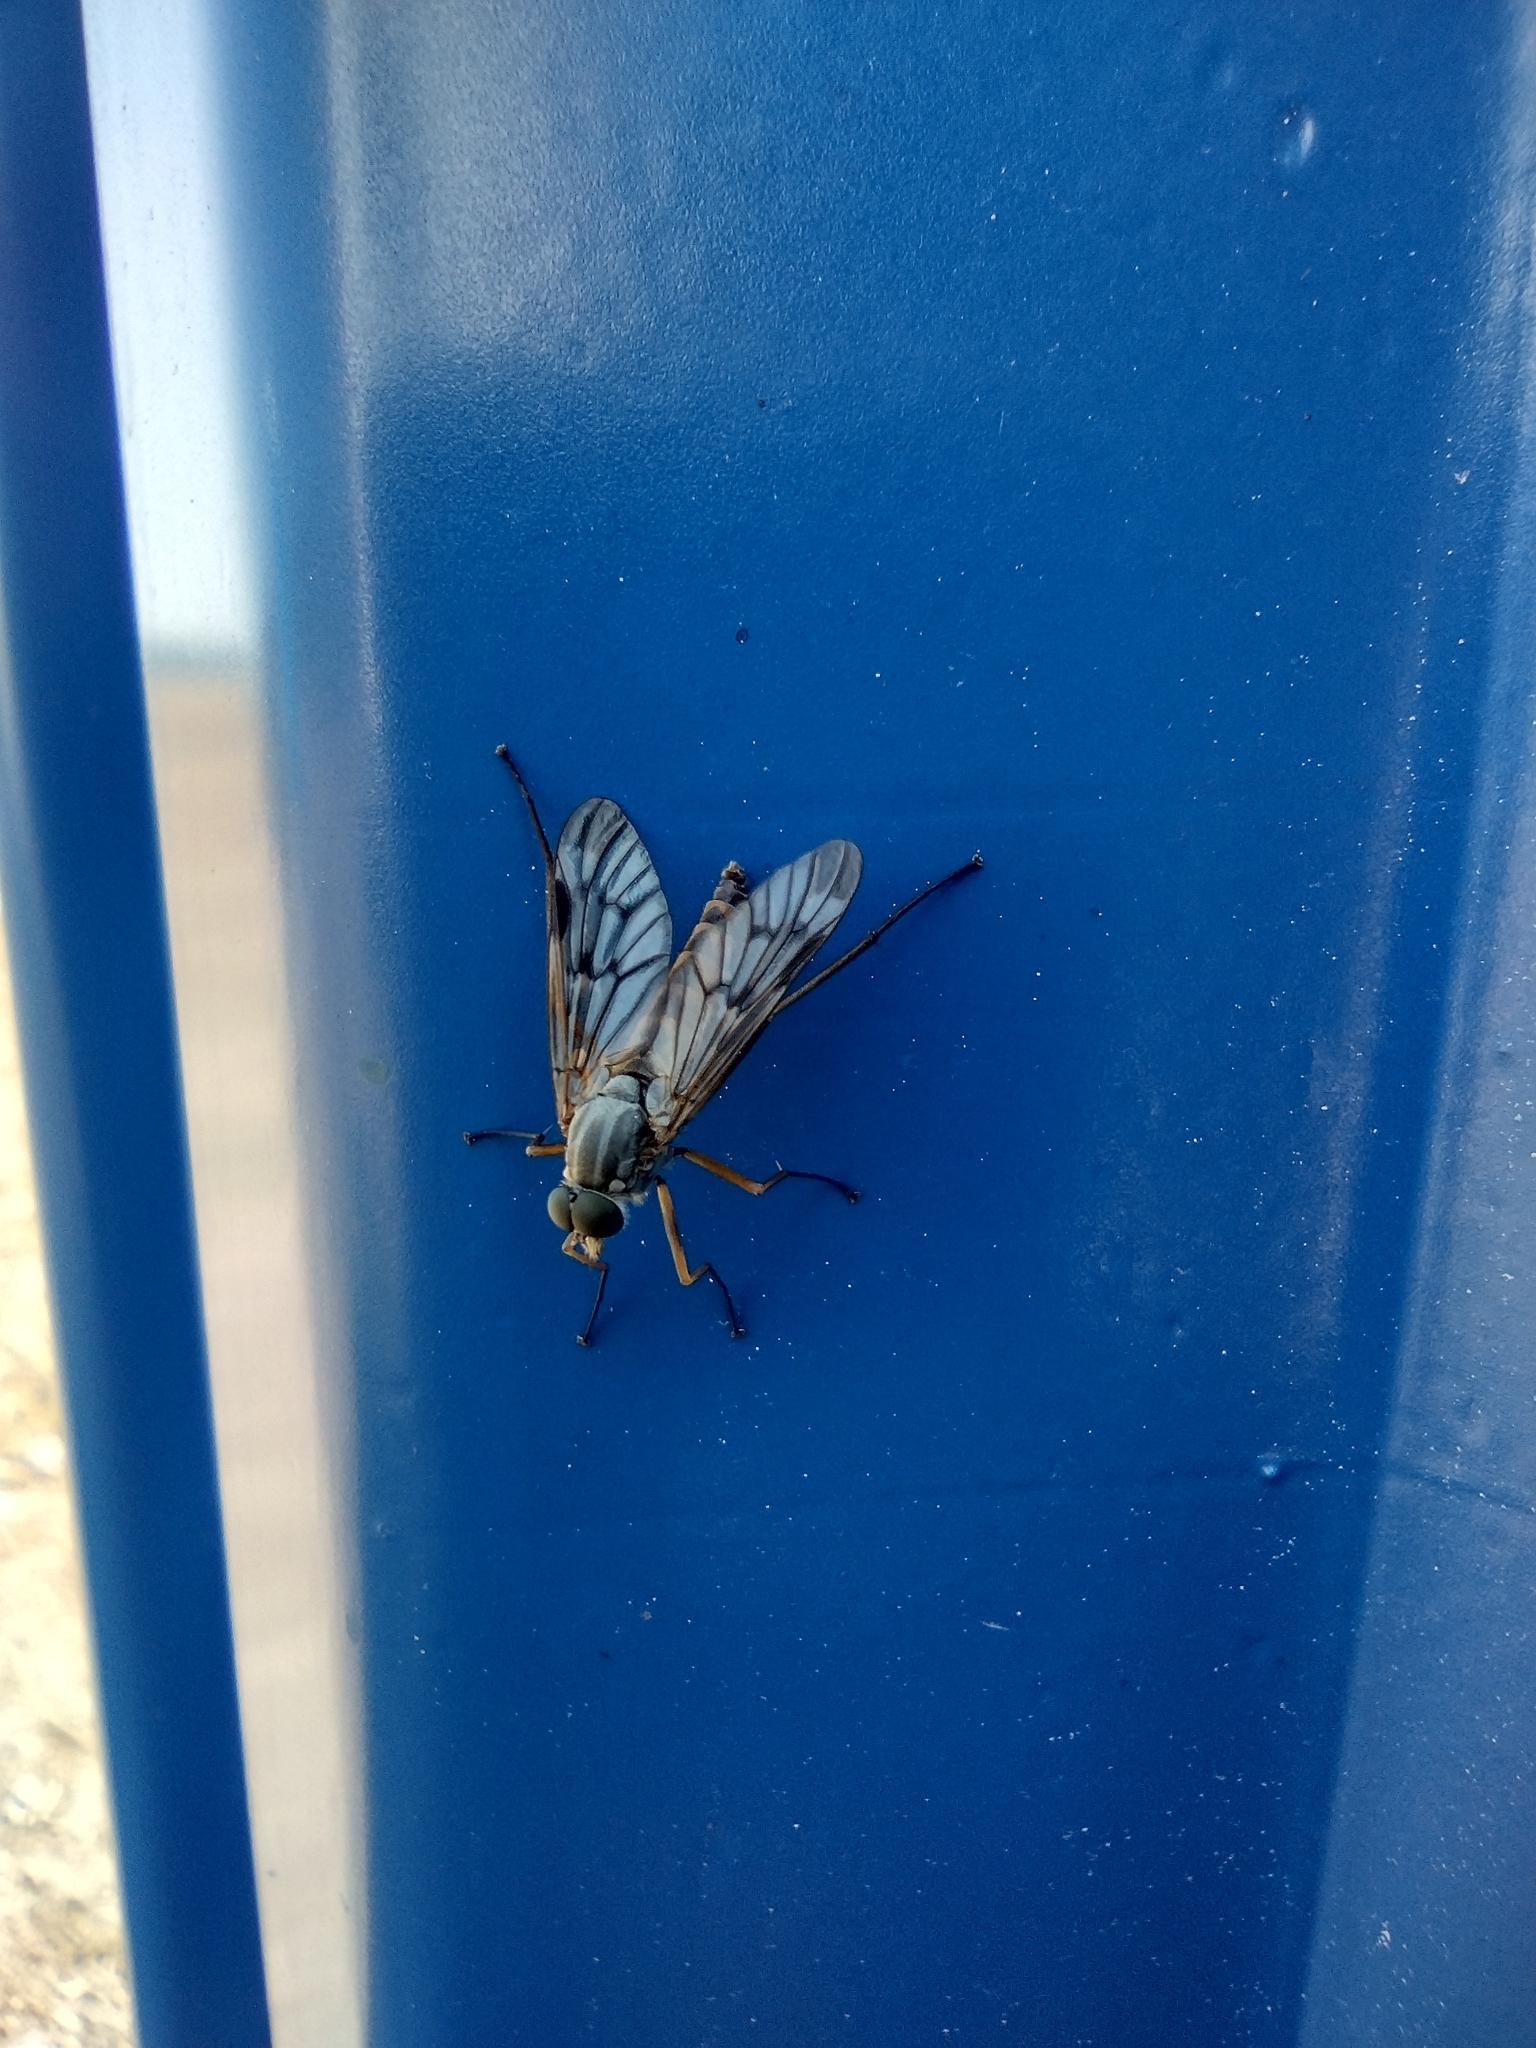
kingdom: Animalia
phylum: Arthropoda
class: Insecta
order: Diptera
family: Rhagionidae
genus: Rhagio
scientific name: Rhagio scolopacea
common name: Downlooker snipefly
